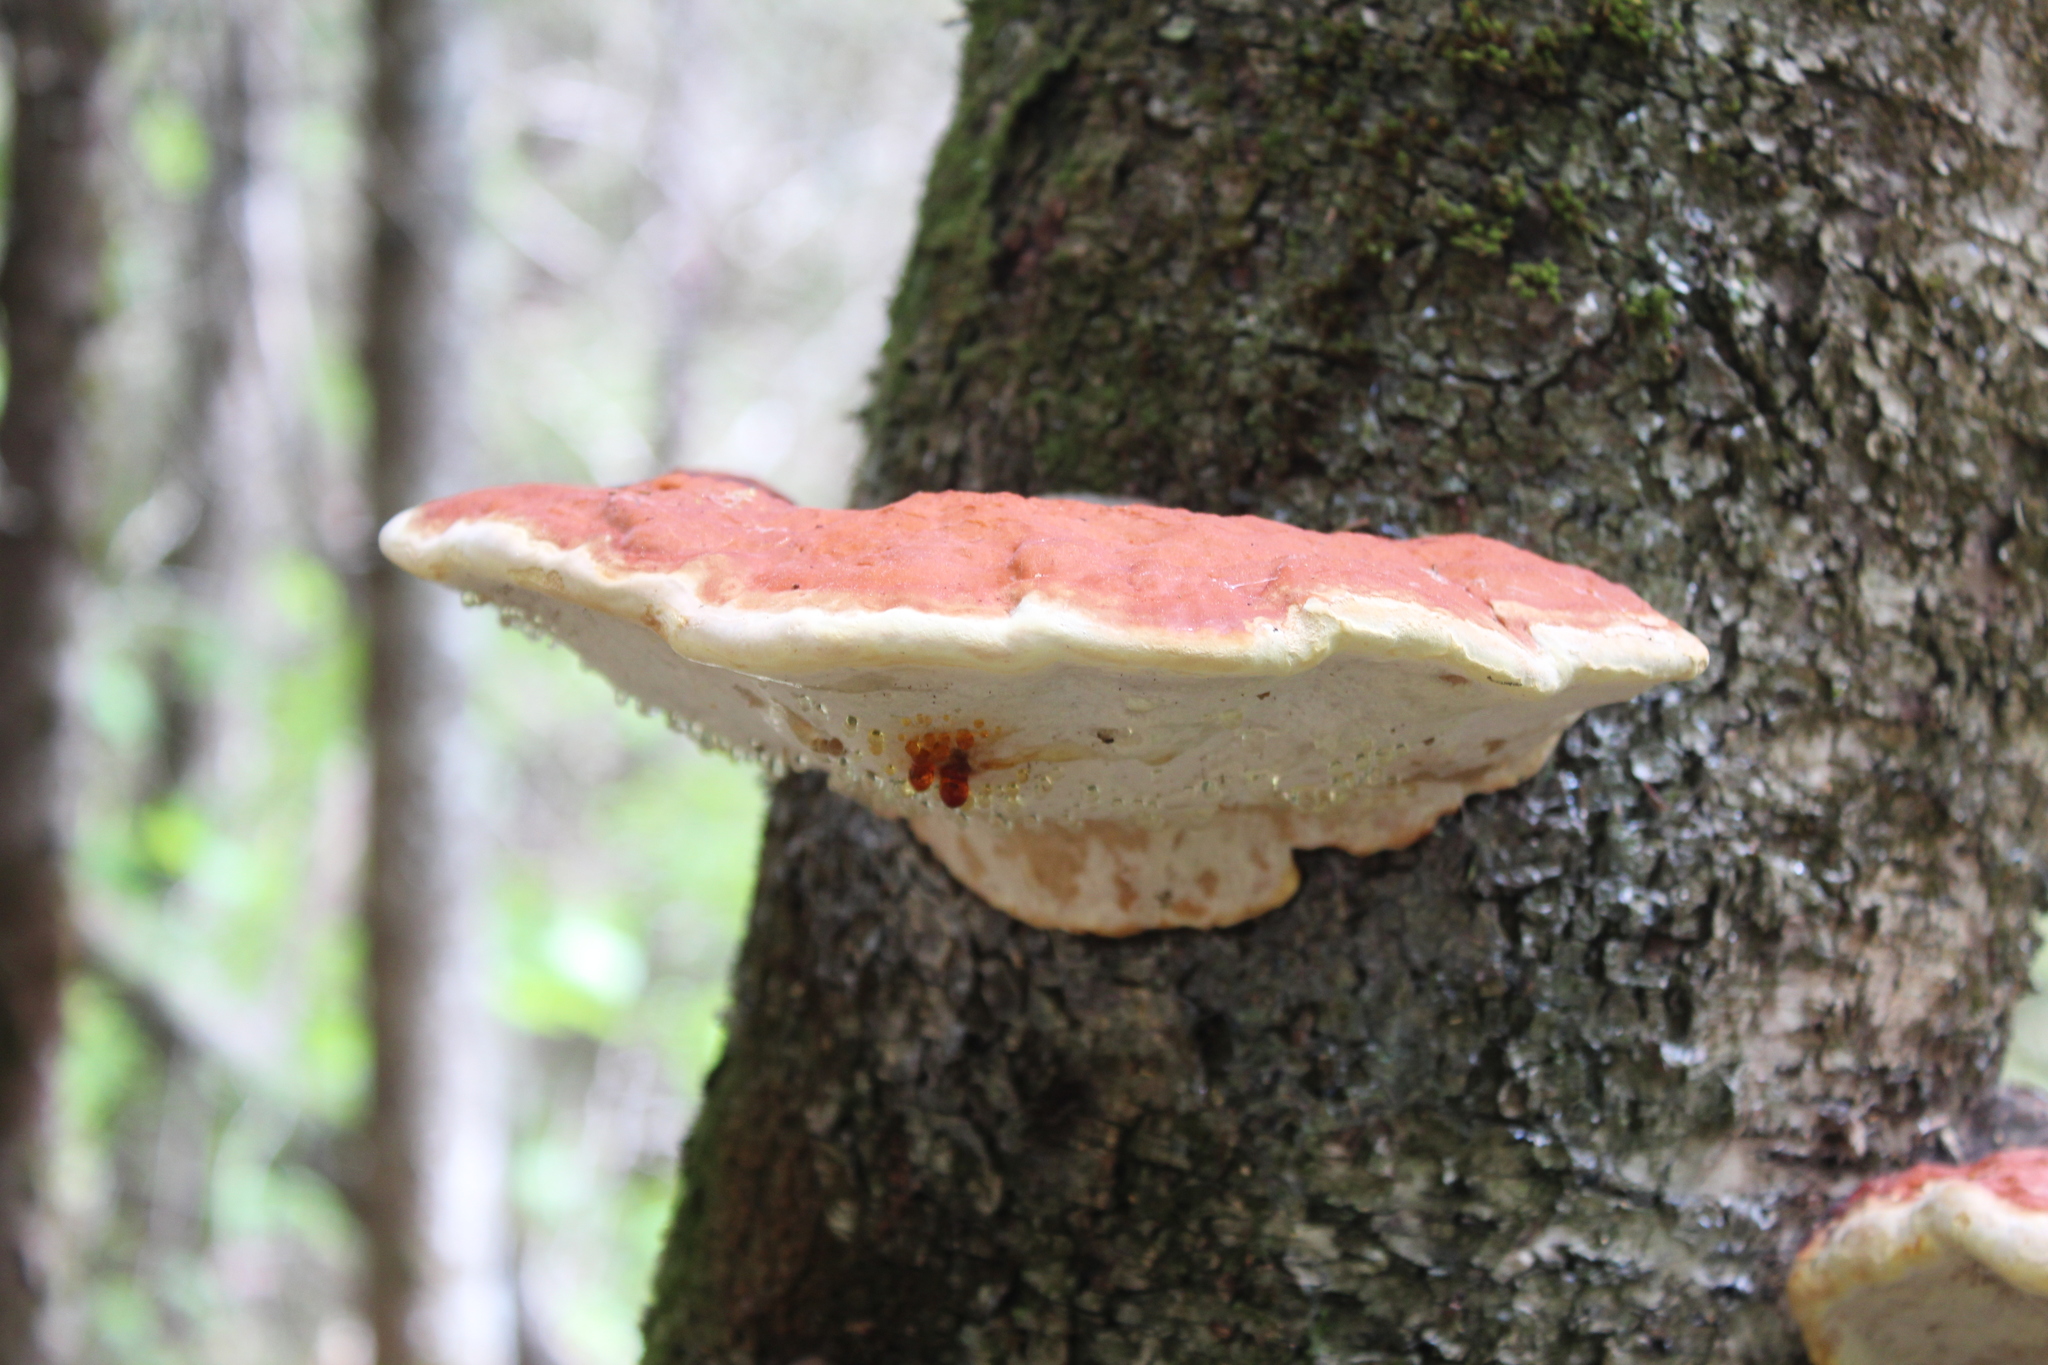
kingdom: Fungi
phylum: Basidiomycota
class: Agaricomycetes
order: Polyporales
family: Fomitopsidaceae
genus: Fomitopsis
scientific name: Fomitopsis mounceae
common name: Northern red belt
